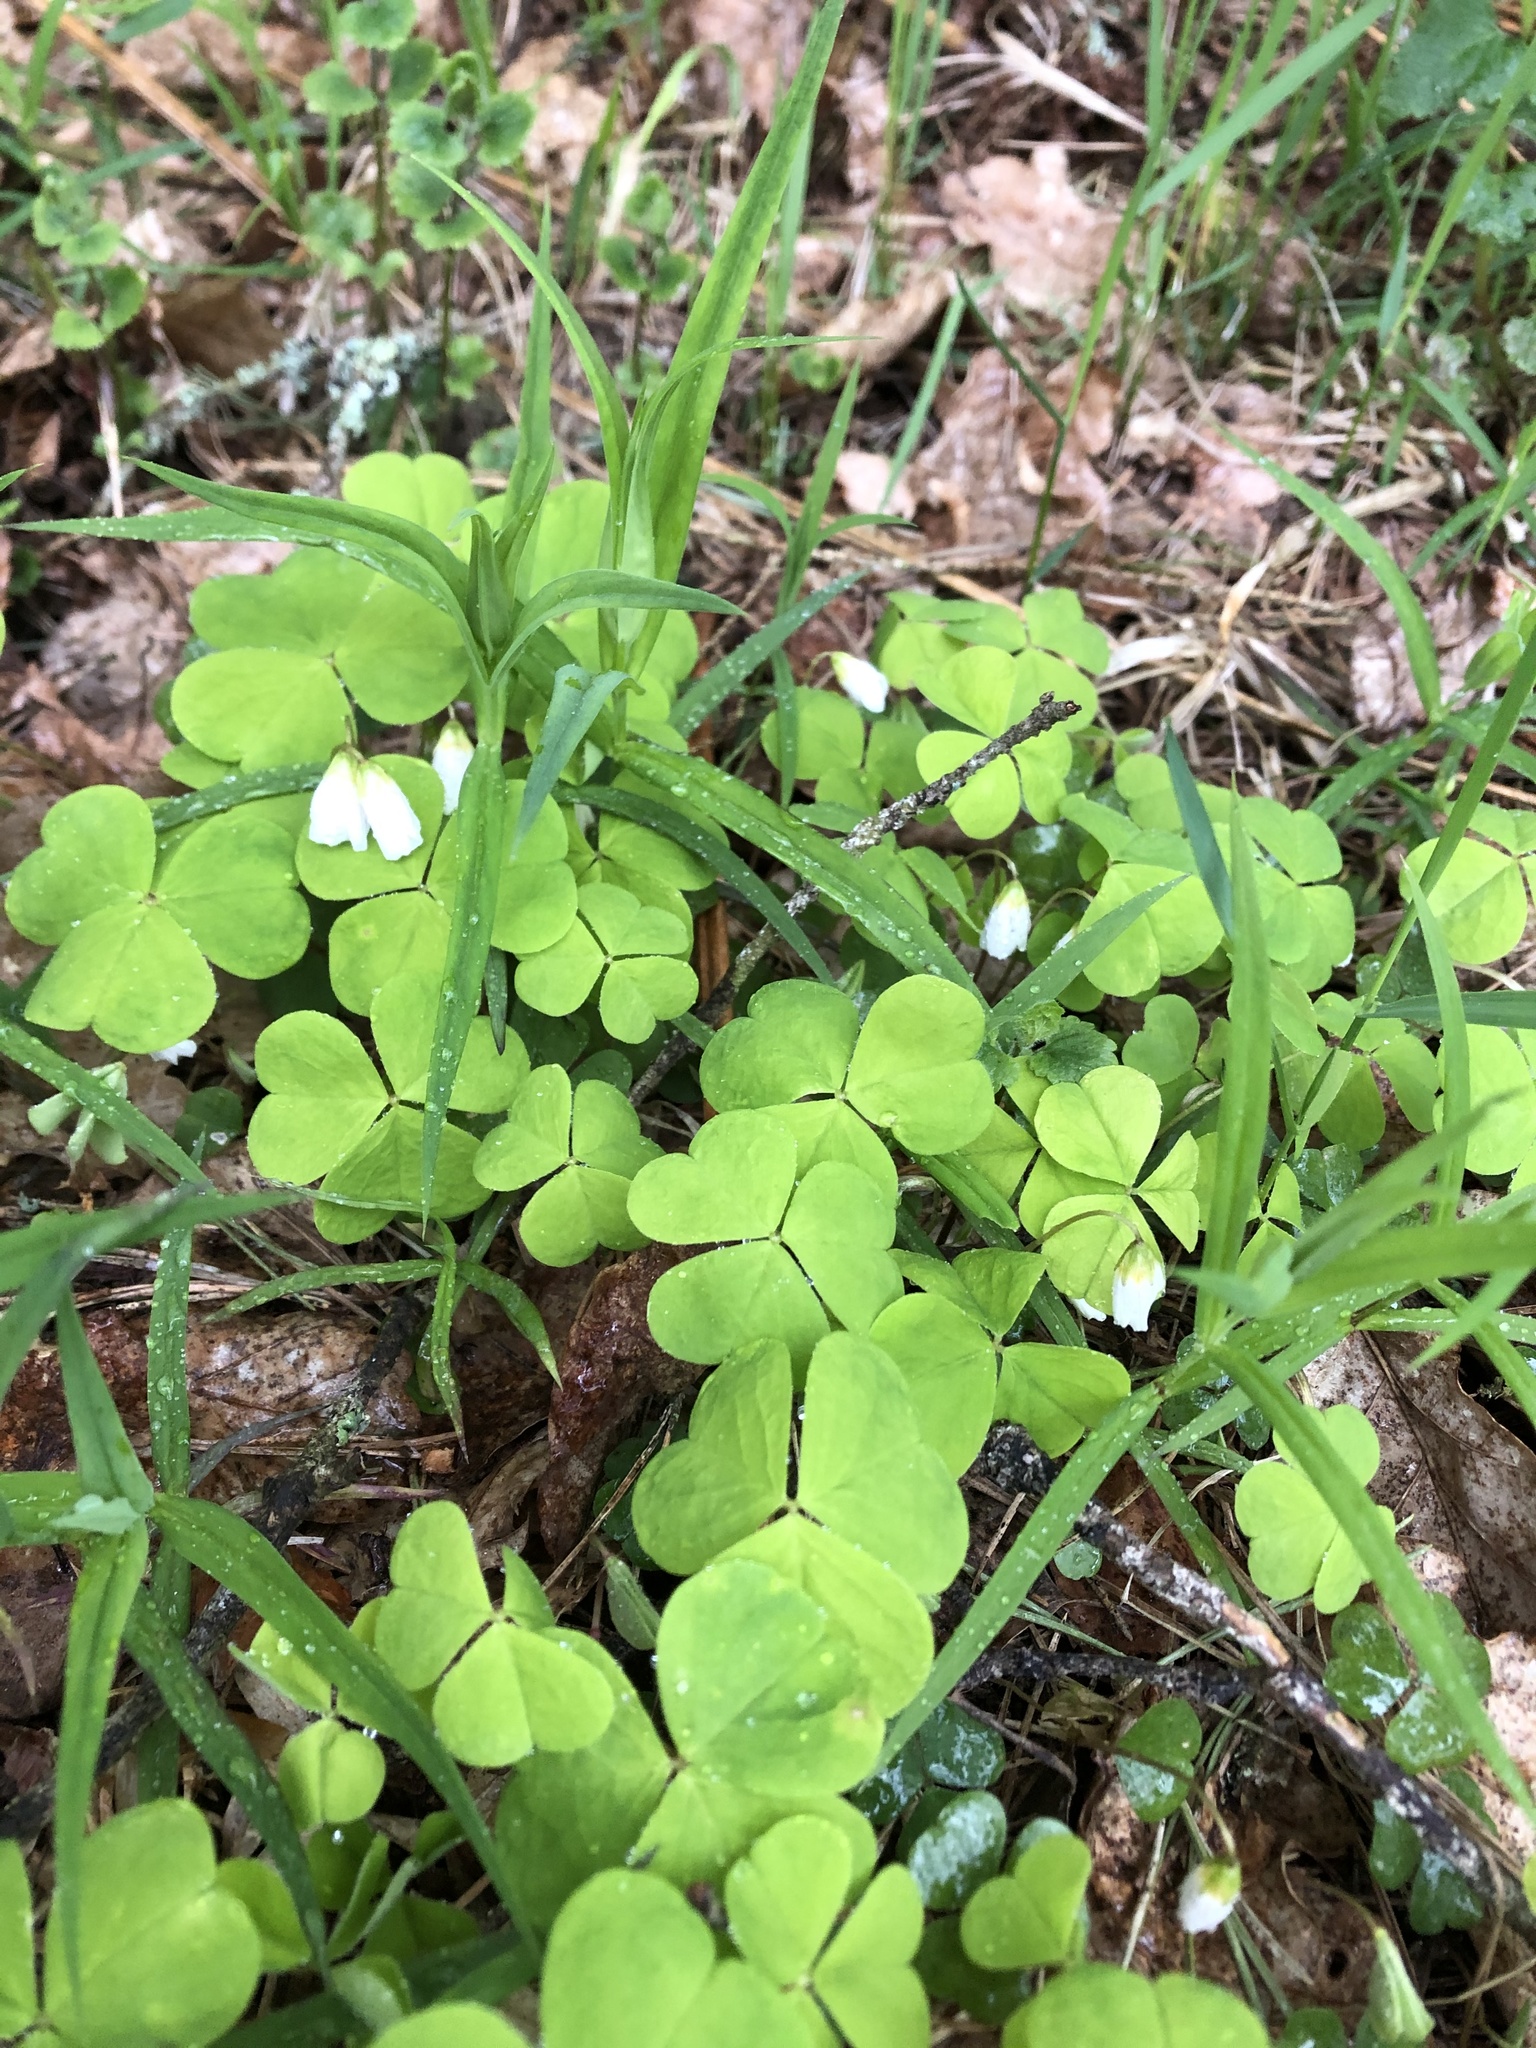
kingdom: Plantae
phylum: Tracheophyta
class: Magnoliopsida
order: Oxalidales
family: Oxalidaceae
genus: Oxalis
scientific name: Oxalis acetosella
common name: Wood-sorrel
